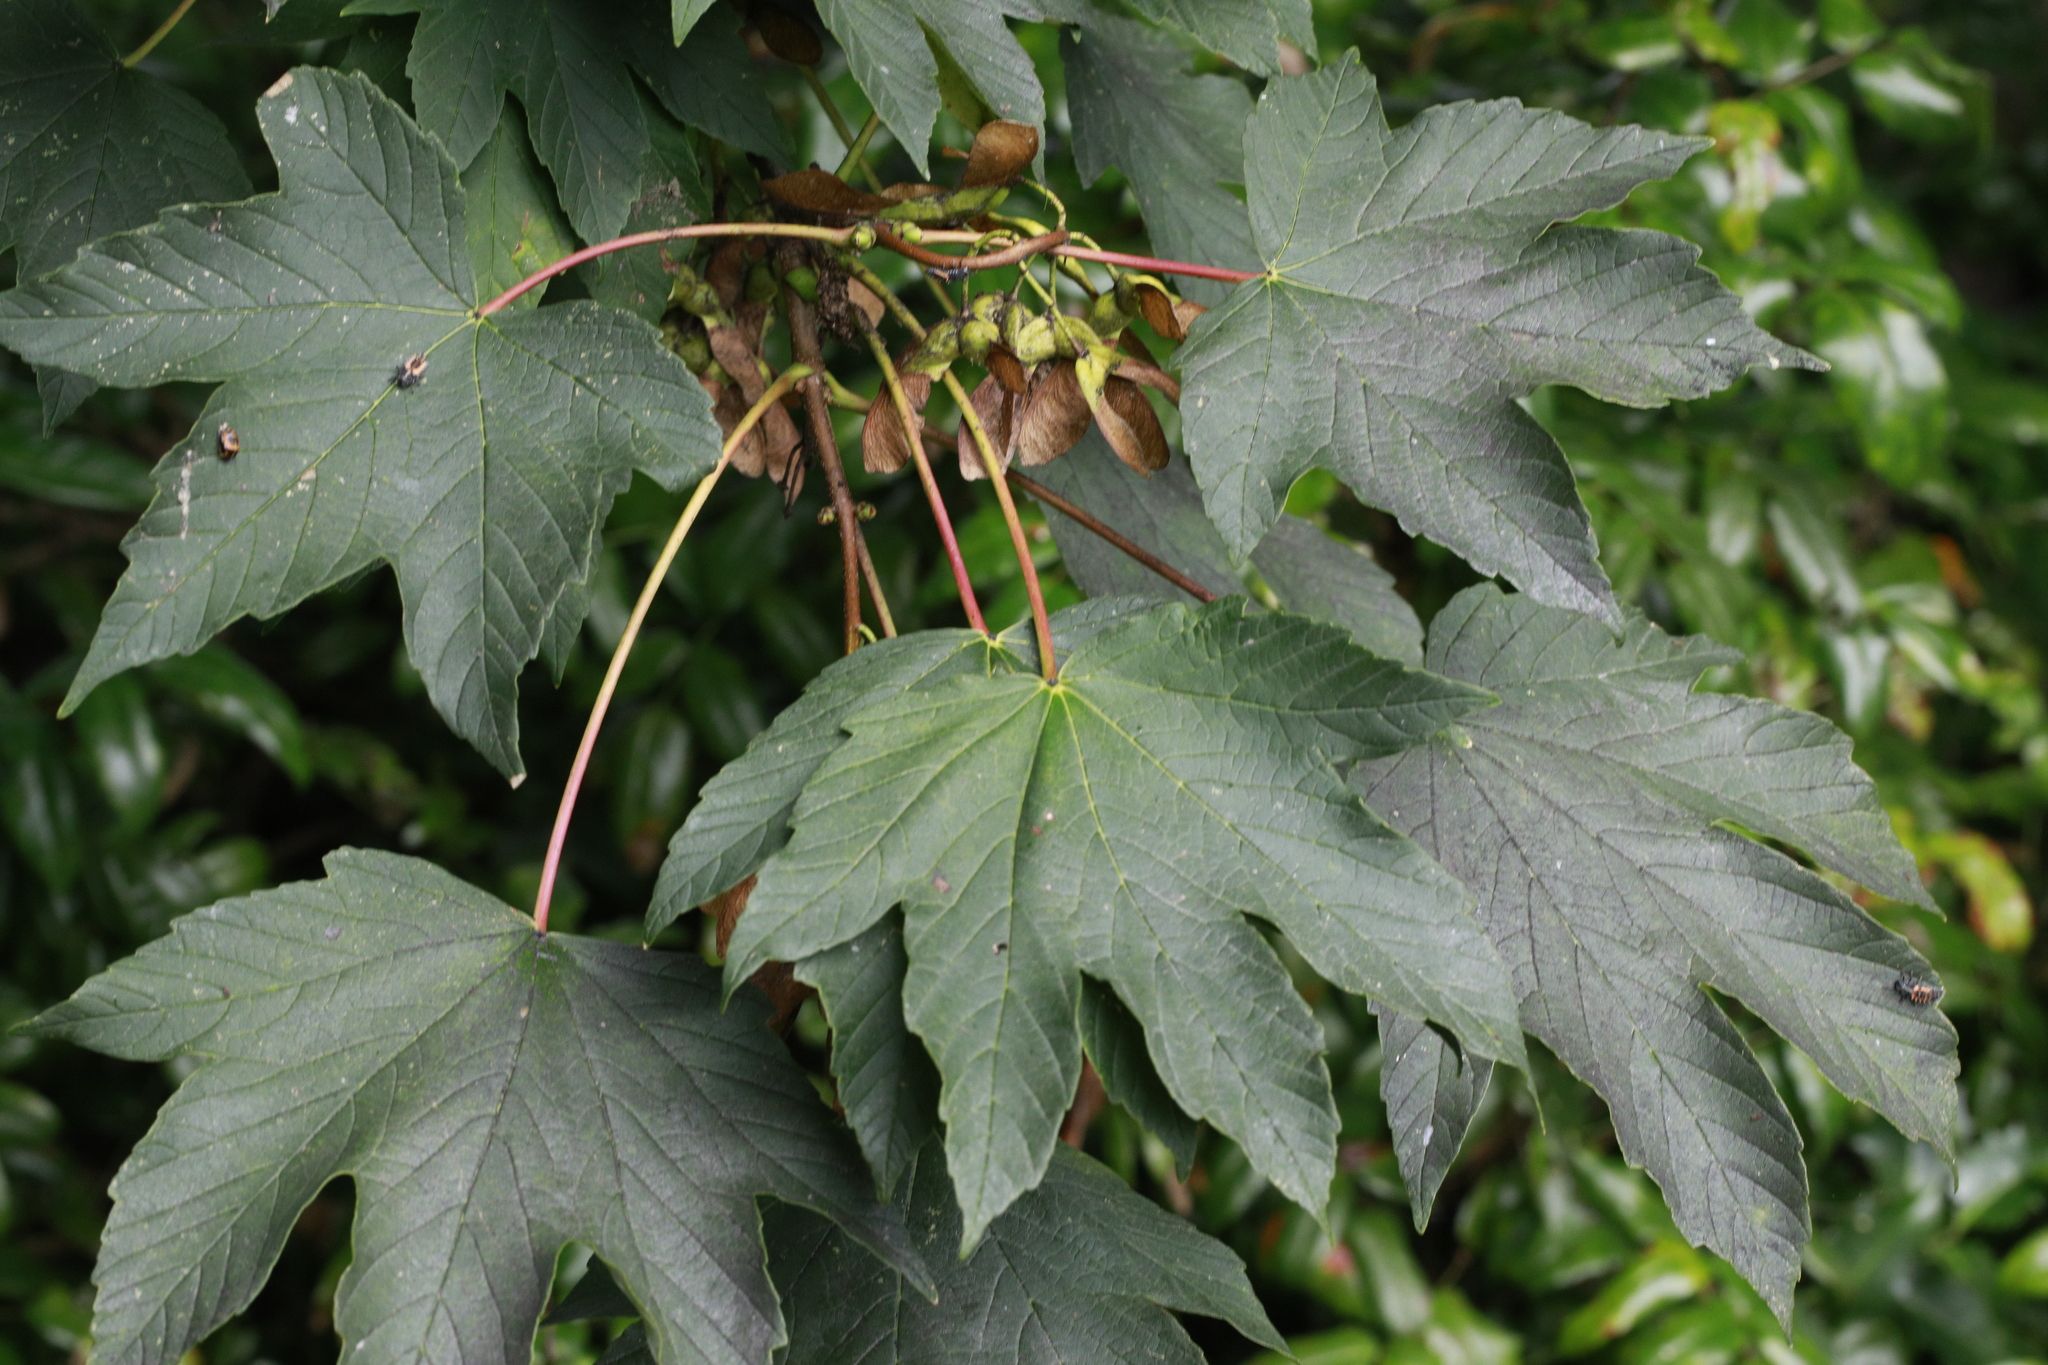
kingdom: Plantae
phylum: Tracheophyta
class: Magnoliopsida
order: Sapindales
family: Sapindaceae
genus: Acer
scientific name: Acer pseudoplatanus
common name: Sycamore
